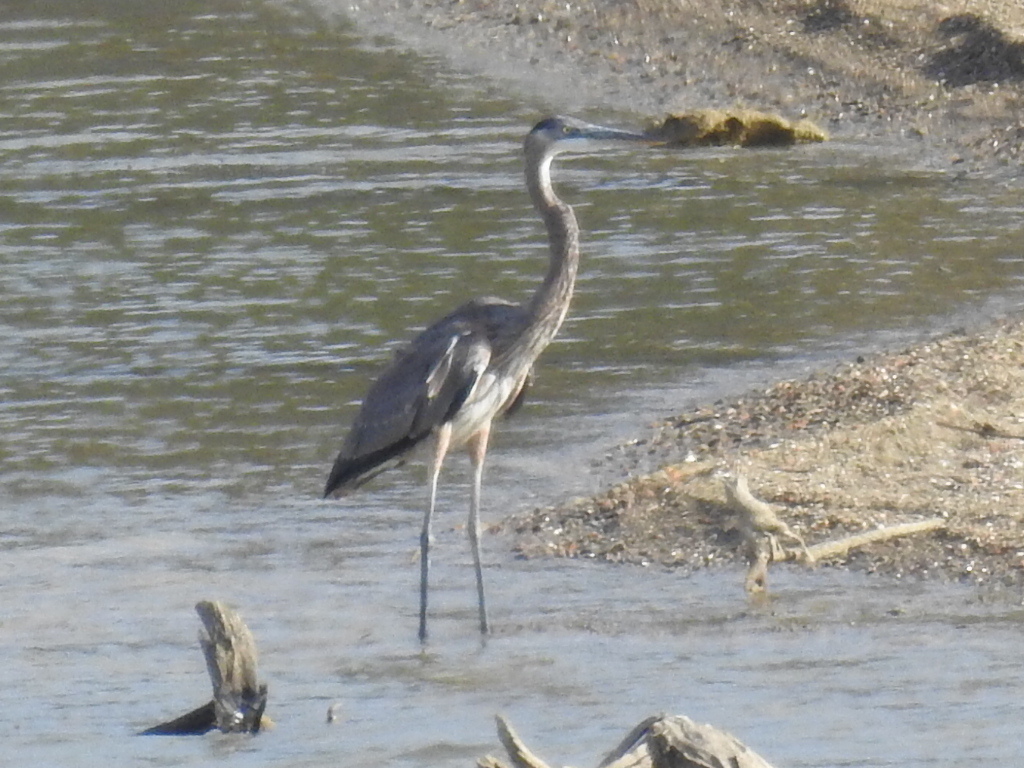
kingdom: Animalia
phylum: Chordata
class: Aves
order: Pelecaniformes
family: Ardeidae
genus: Ardea
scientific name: Ardea herodias
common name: Great blue heron
